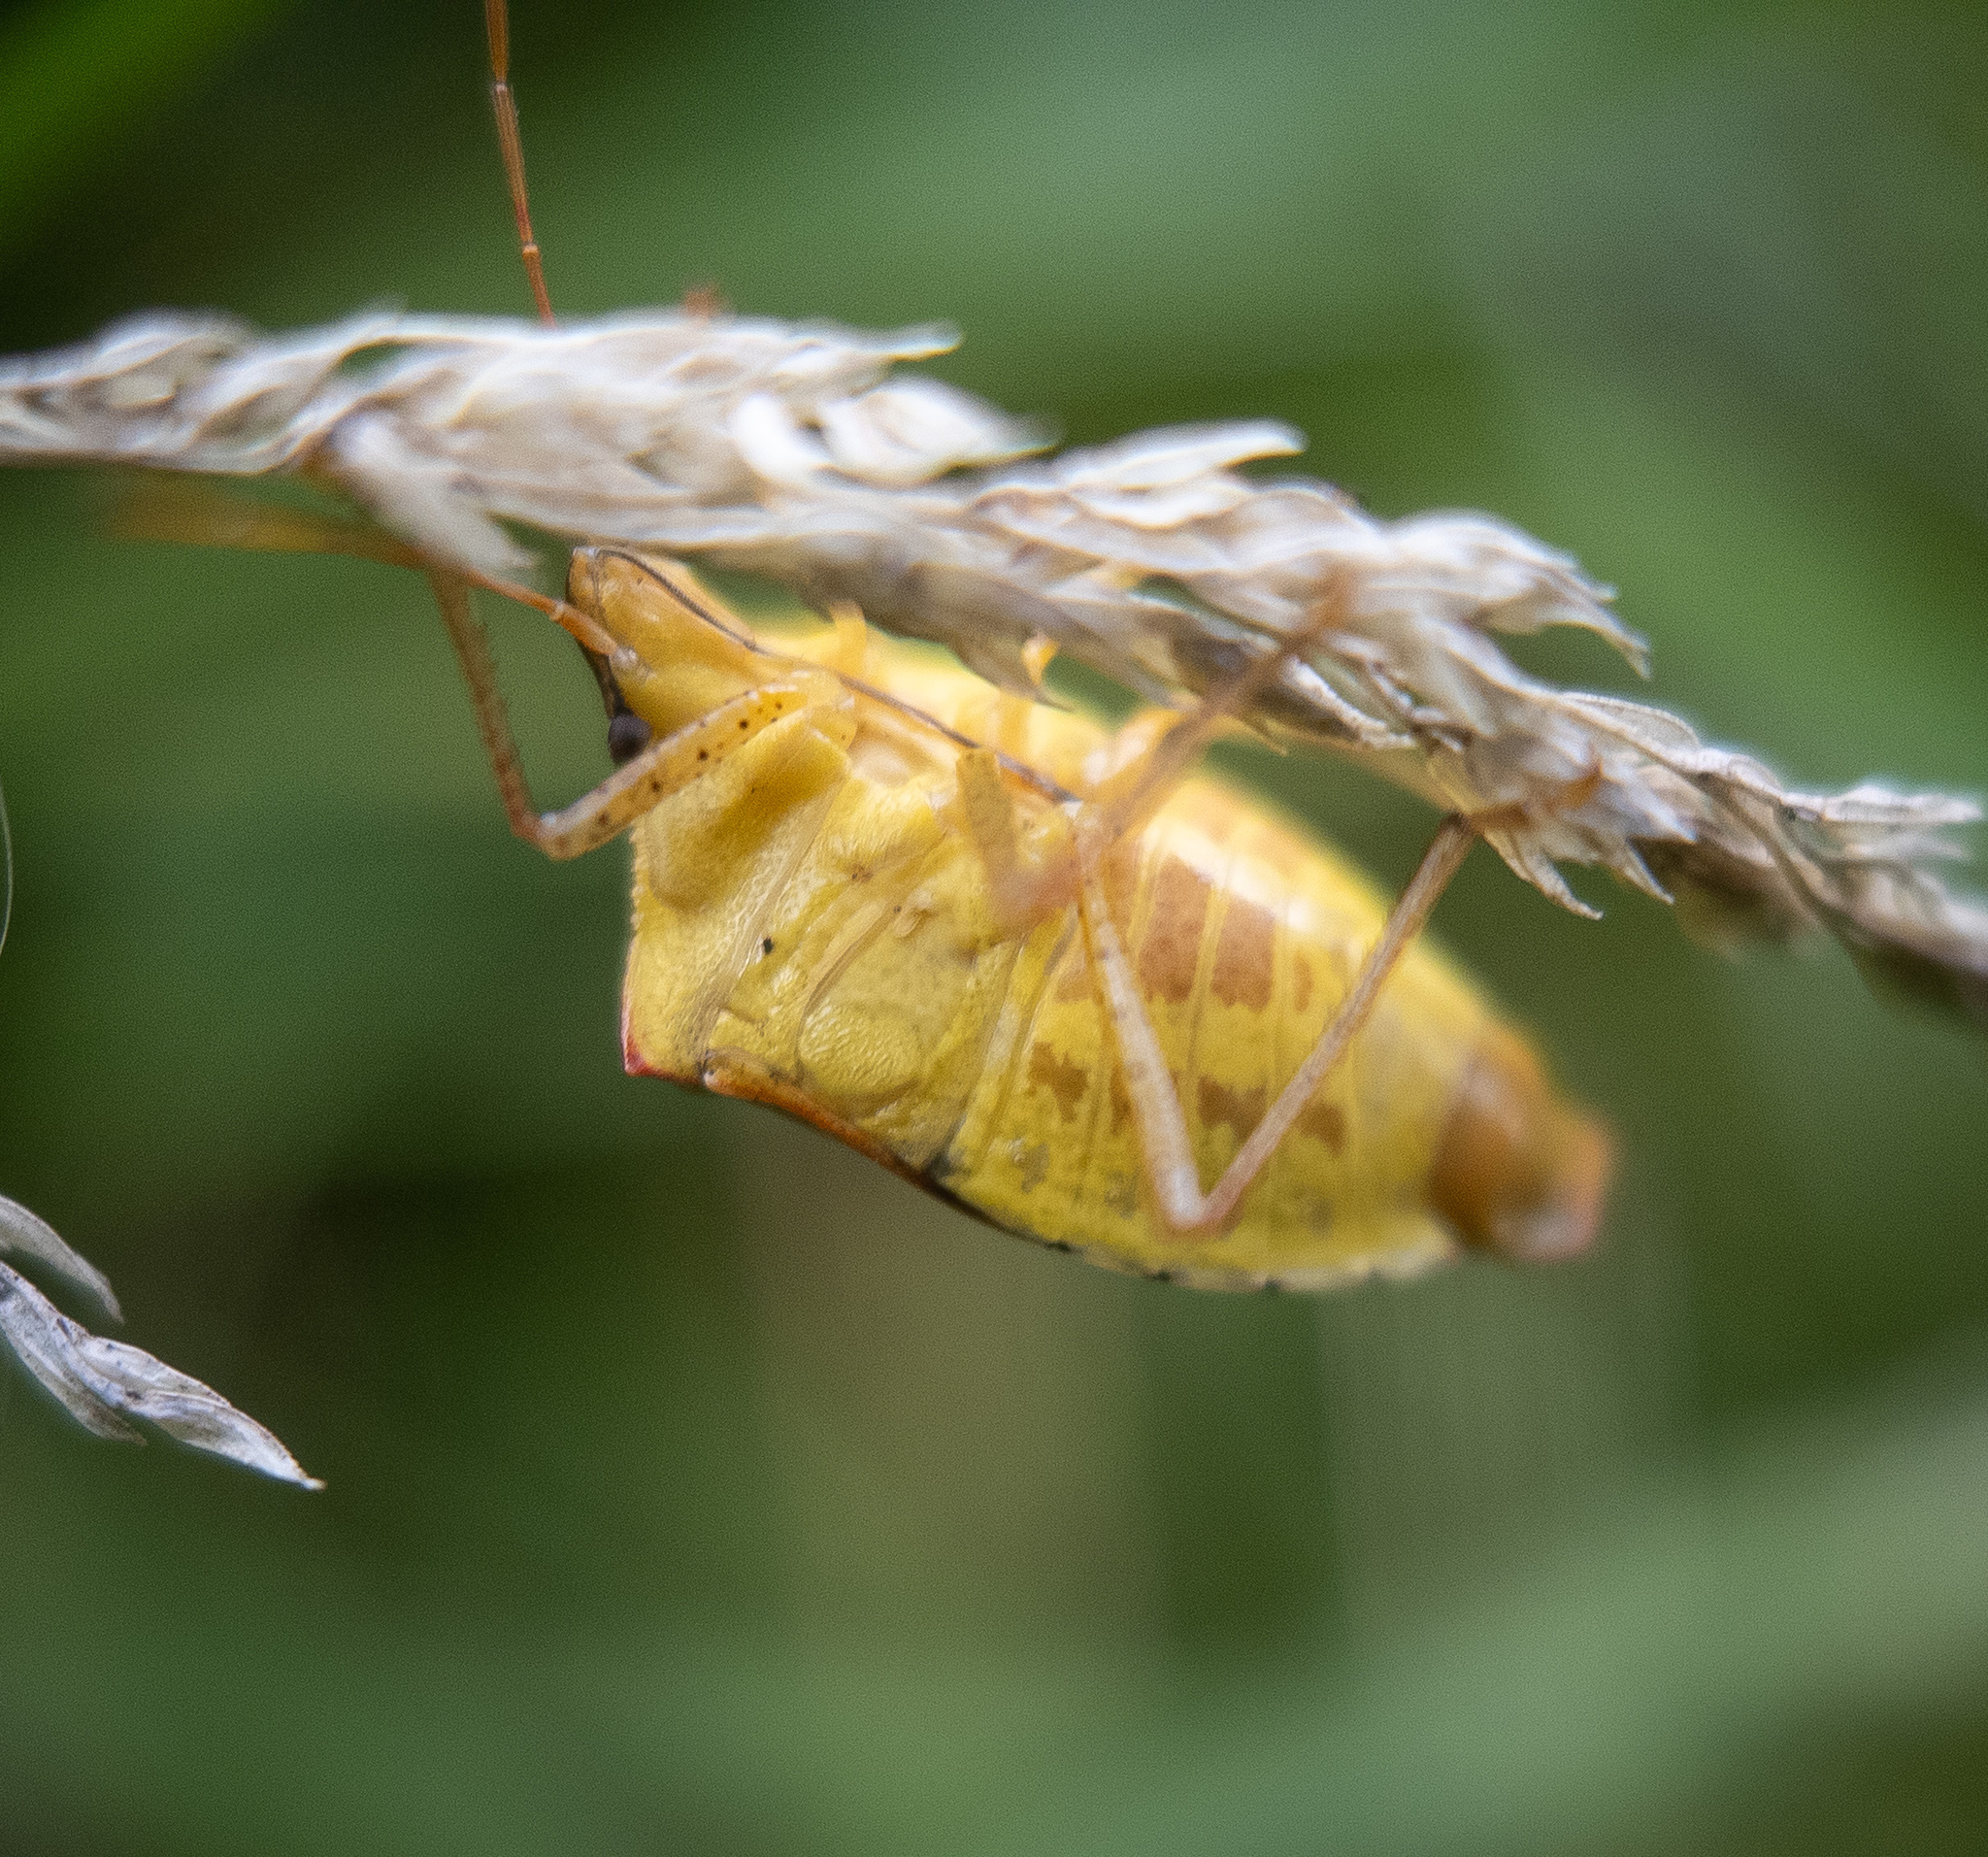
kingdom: Animalia
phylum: Arthropoda
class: Insecta
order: Hemiptera
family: Pentatomidae
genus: Euschistus
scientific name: Euschistus servus
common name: Brown stink bug
